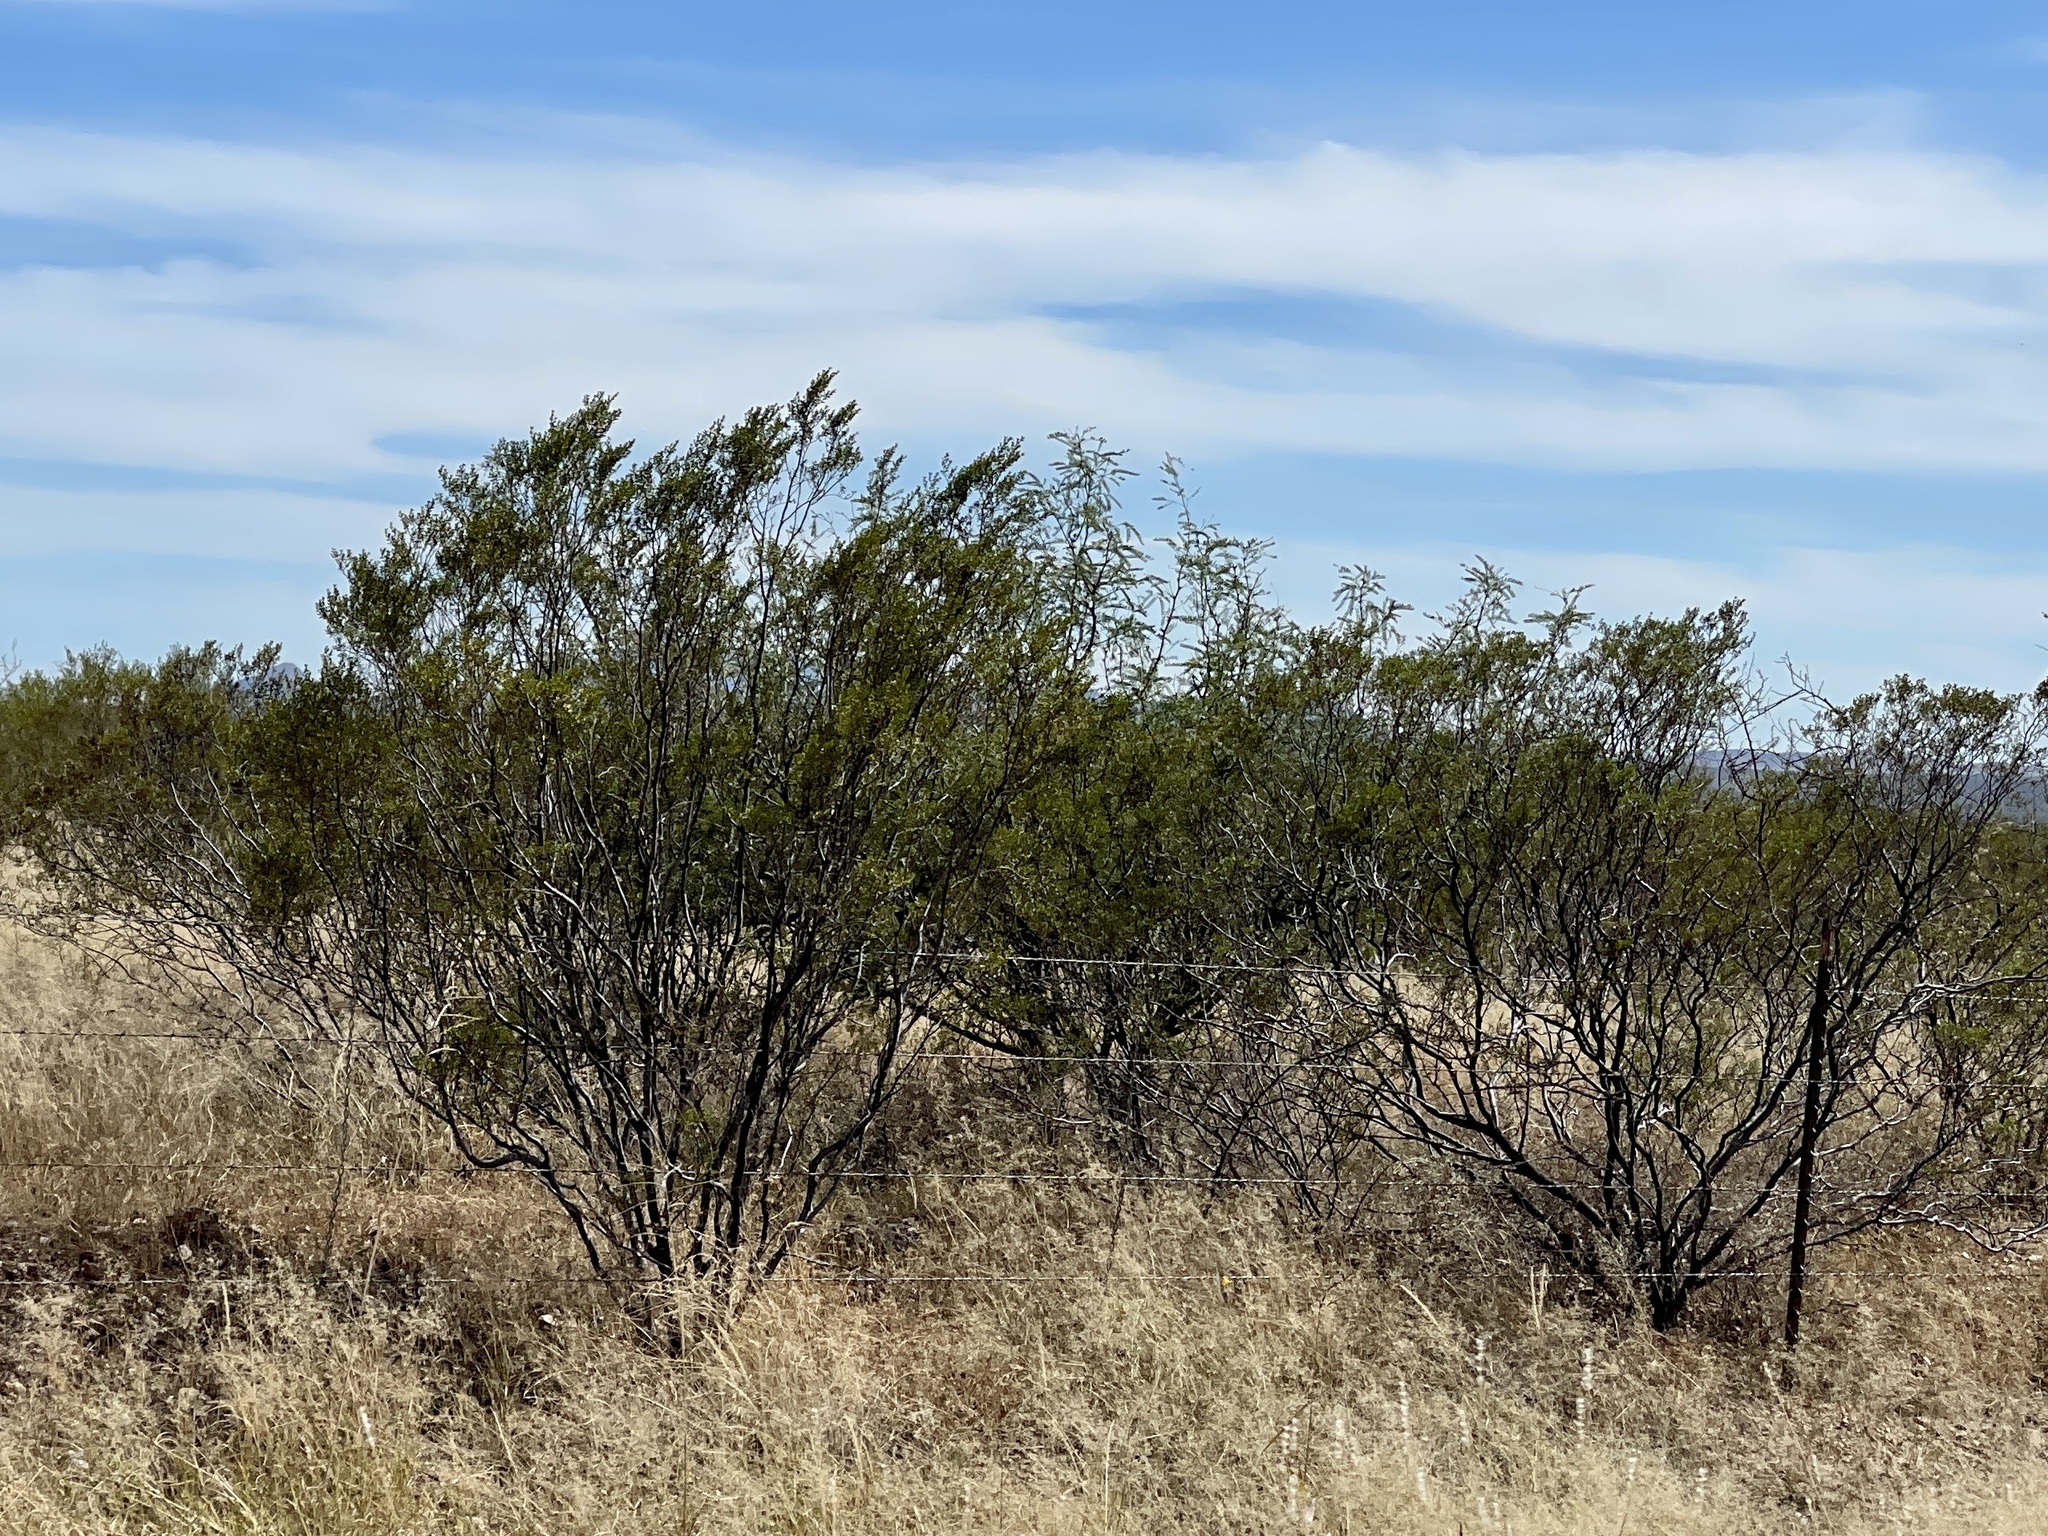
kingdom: Plantae
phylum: Tracheophyta
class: Magnoliopsida
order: Zygophyllales
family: Zygophyllaceae
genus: Larrea
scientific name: Larrea tridentata
